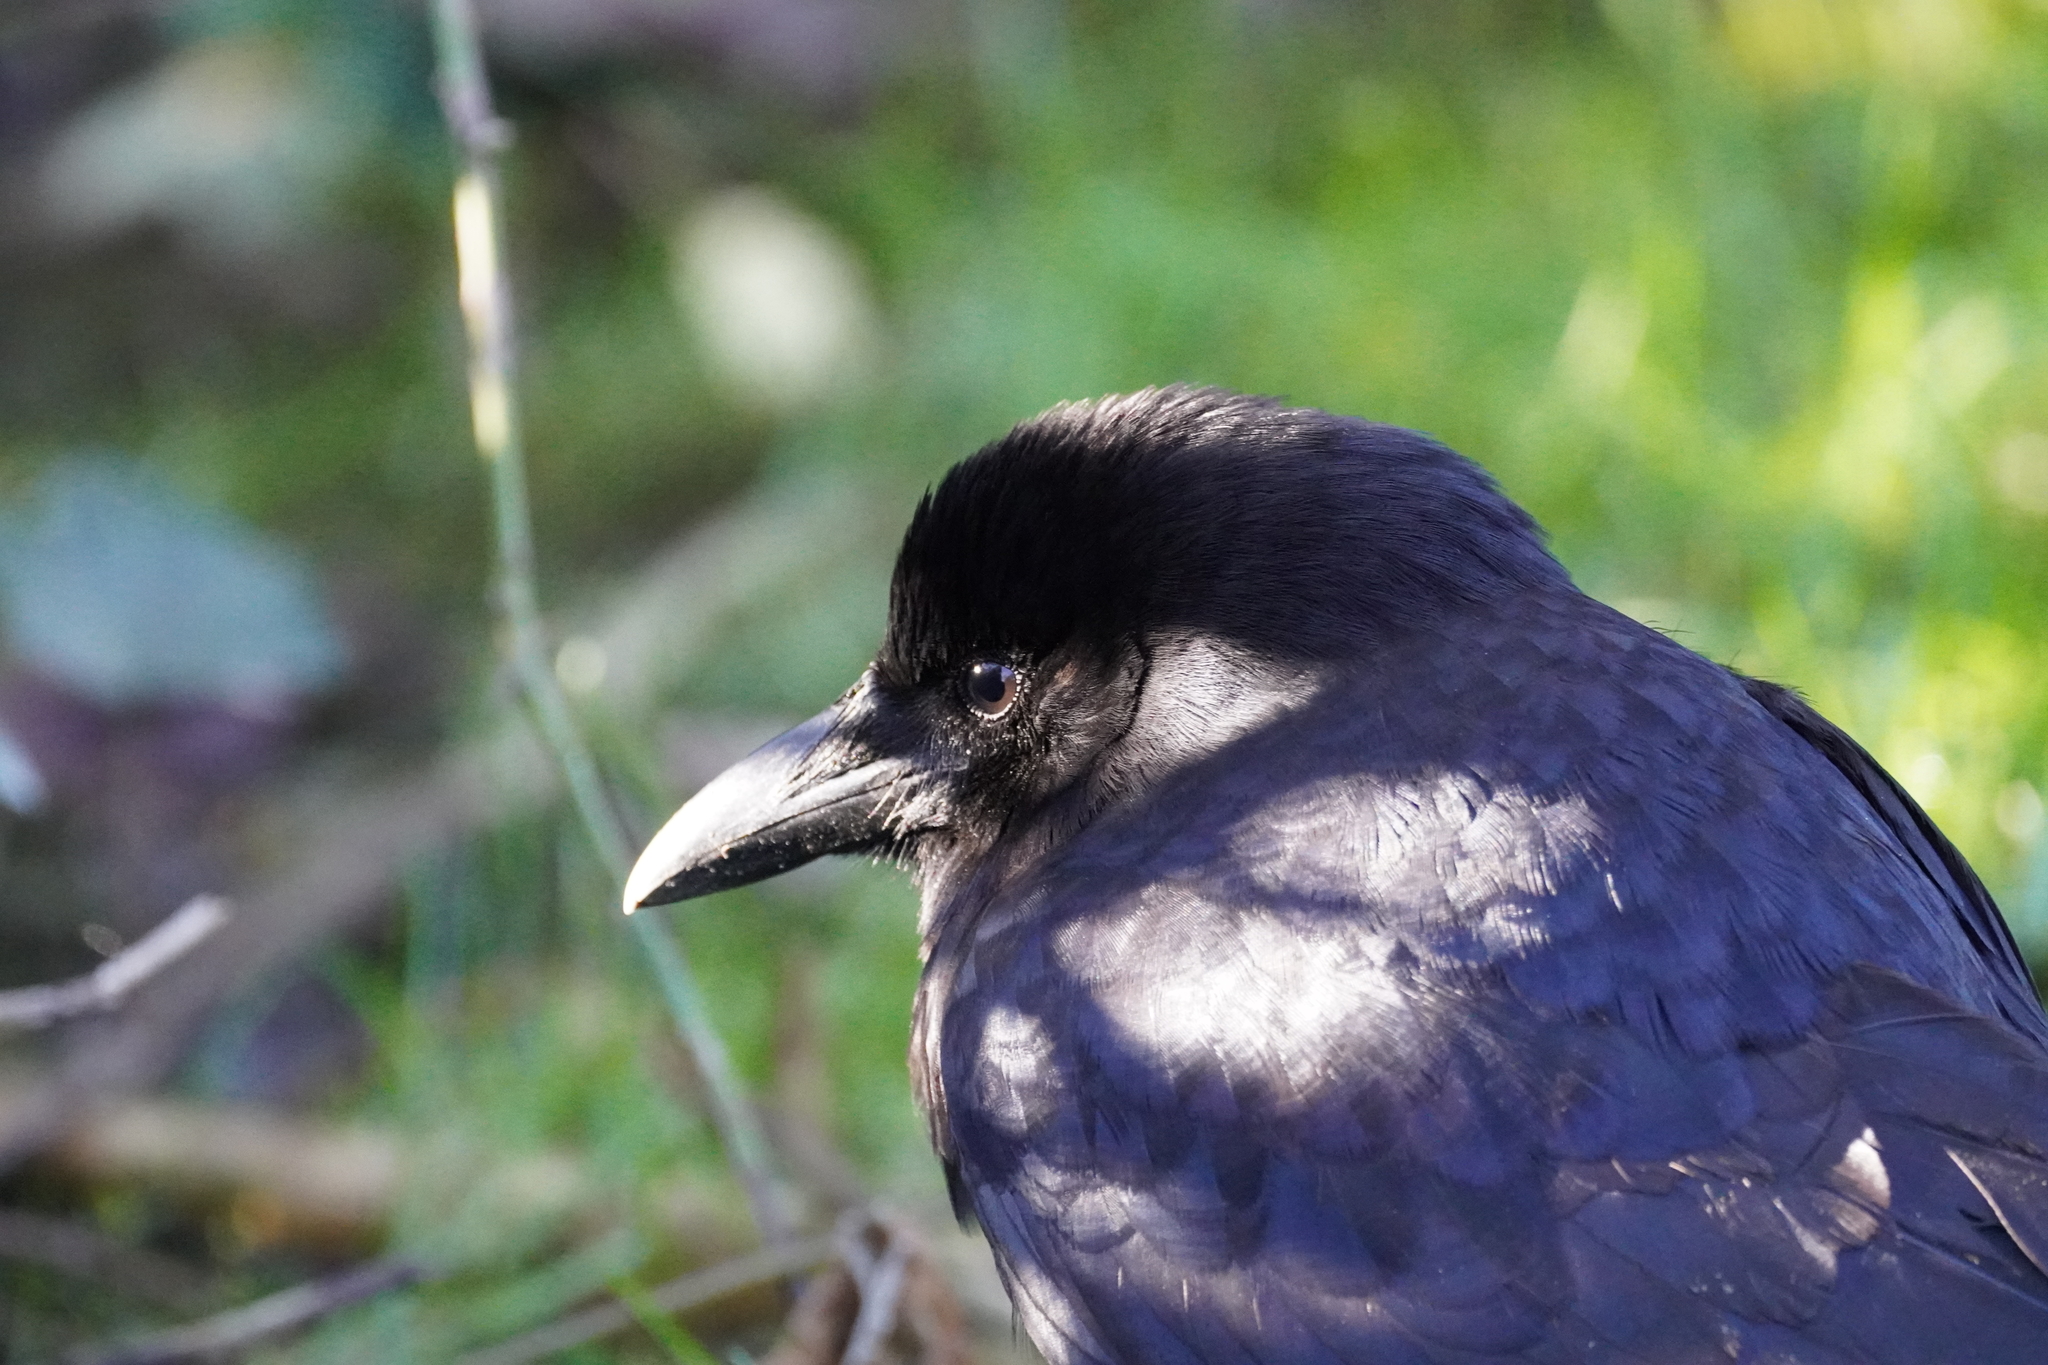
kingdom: Animalia
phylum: Chordata
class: Aves
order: Passeriformes
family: Corvidae
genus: Corvus
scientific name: Corvus brachyrhynchos
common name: American crow
